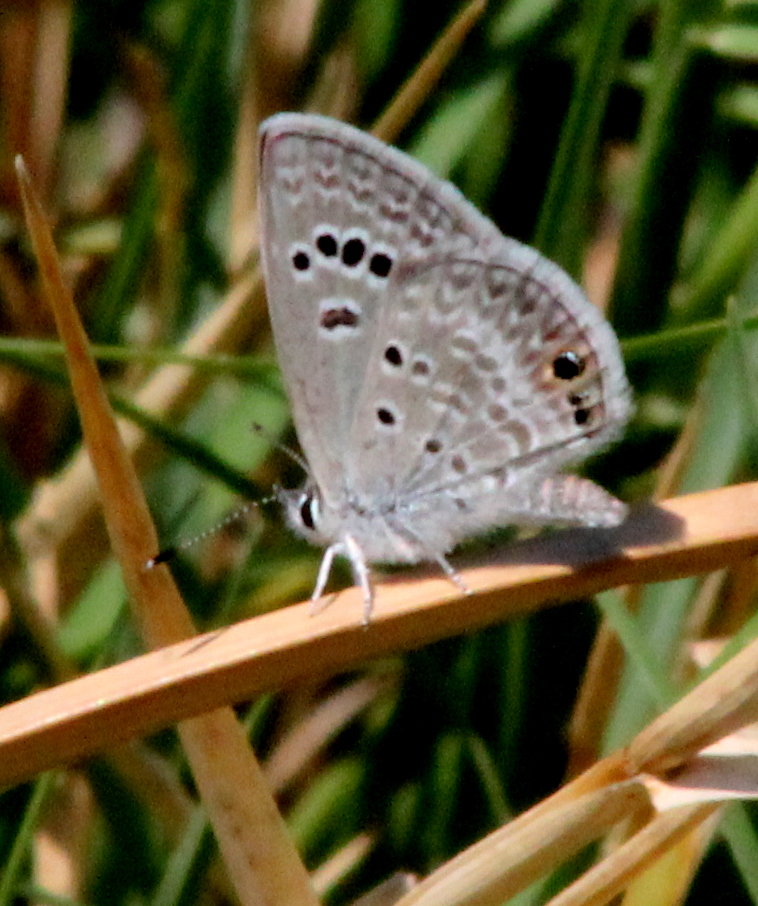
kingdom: Animalia
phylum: Arthropoda
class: Insecta
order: Lepidoptera
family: Lycaenidae
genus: Echinargus
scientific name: Echinargus isola
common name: Reakirt's blue
